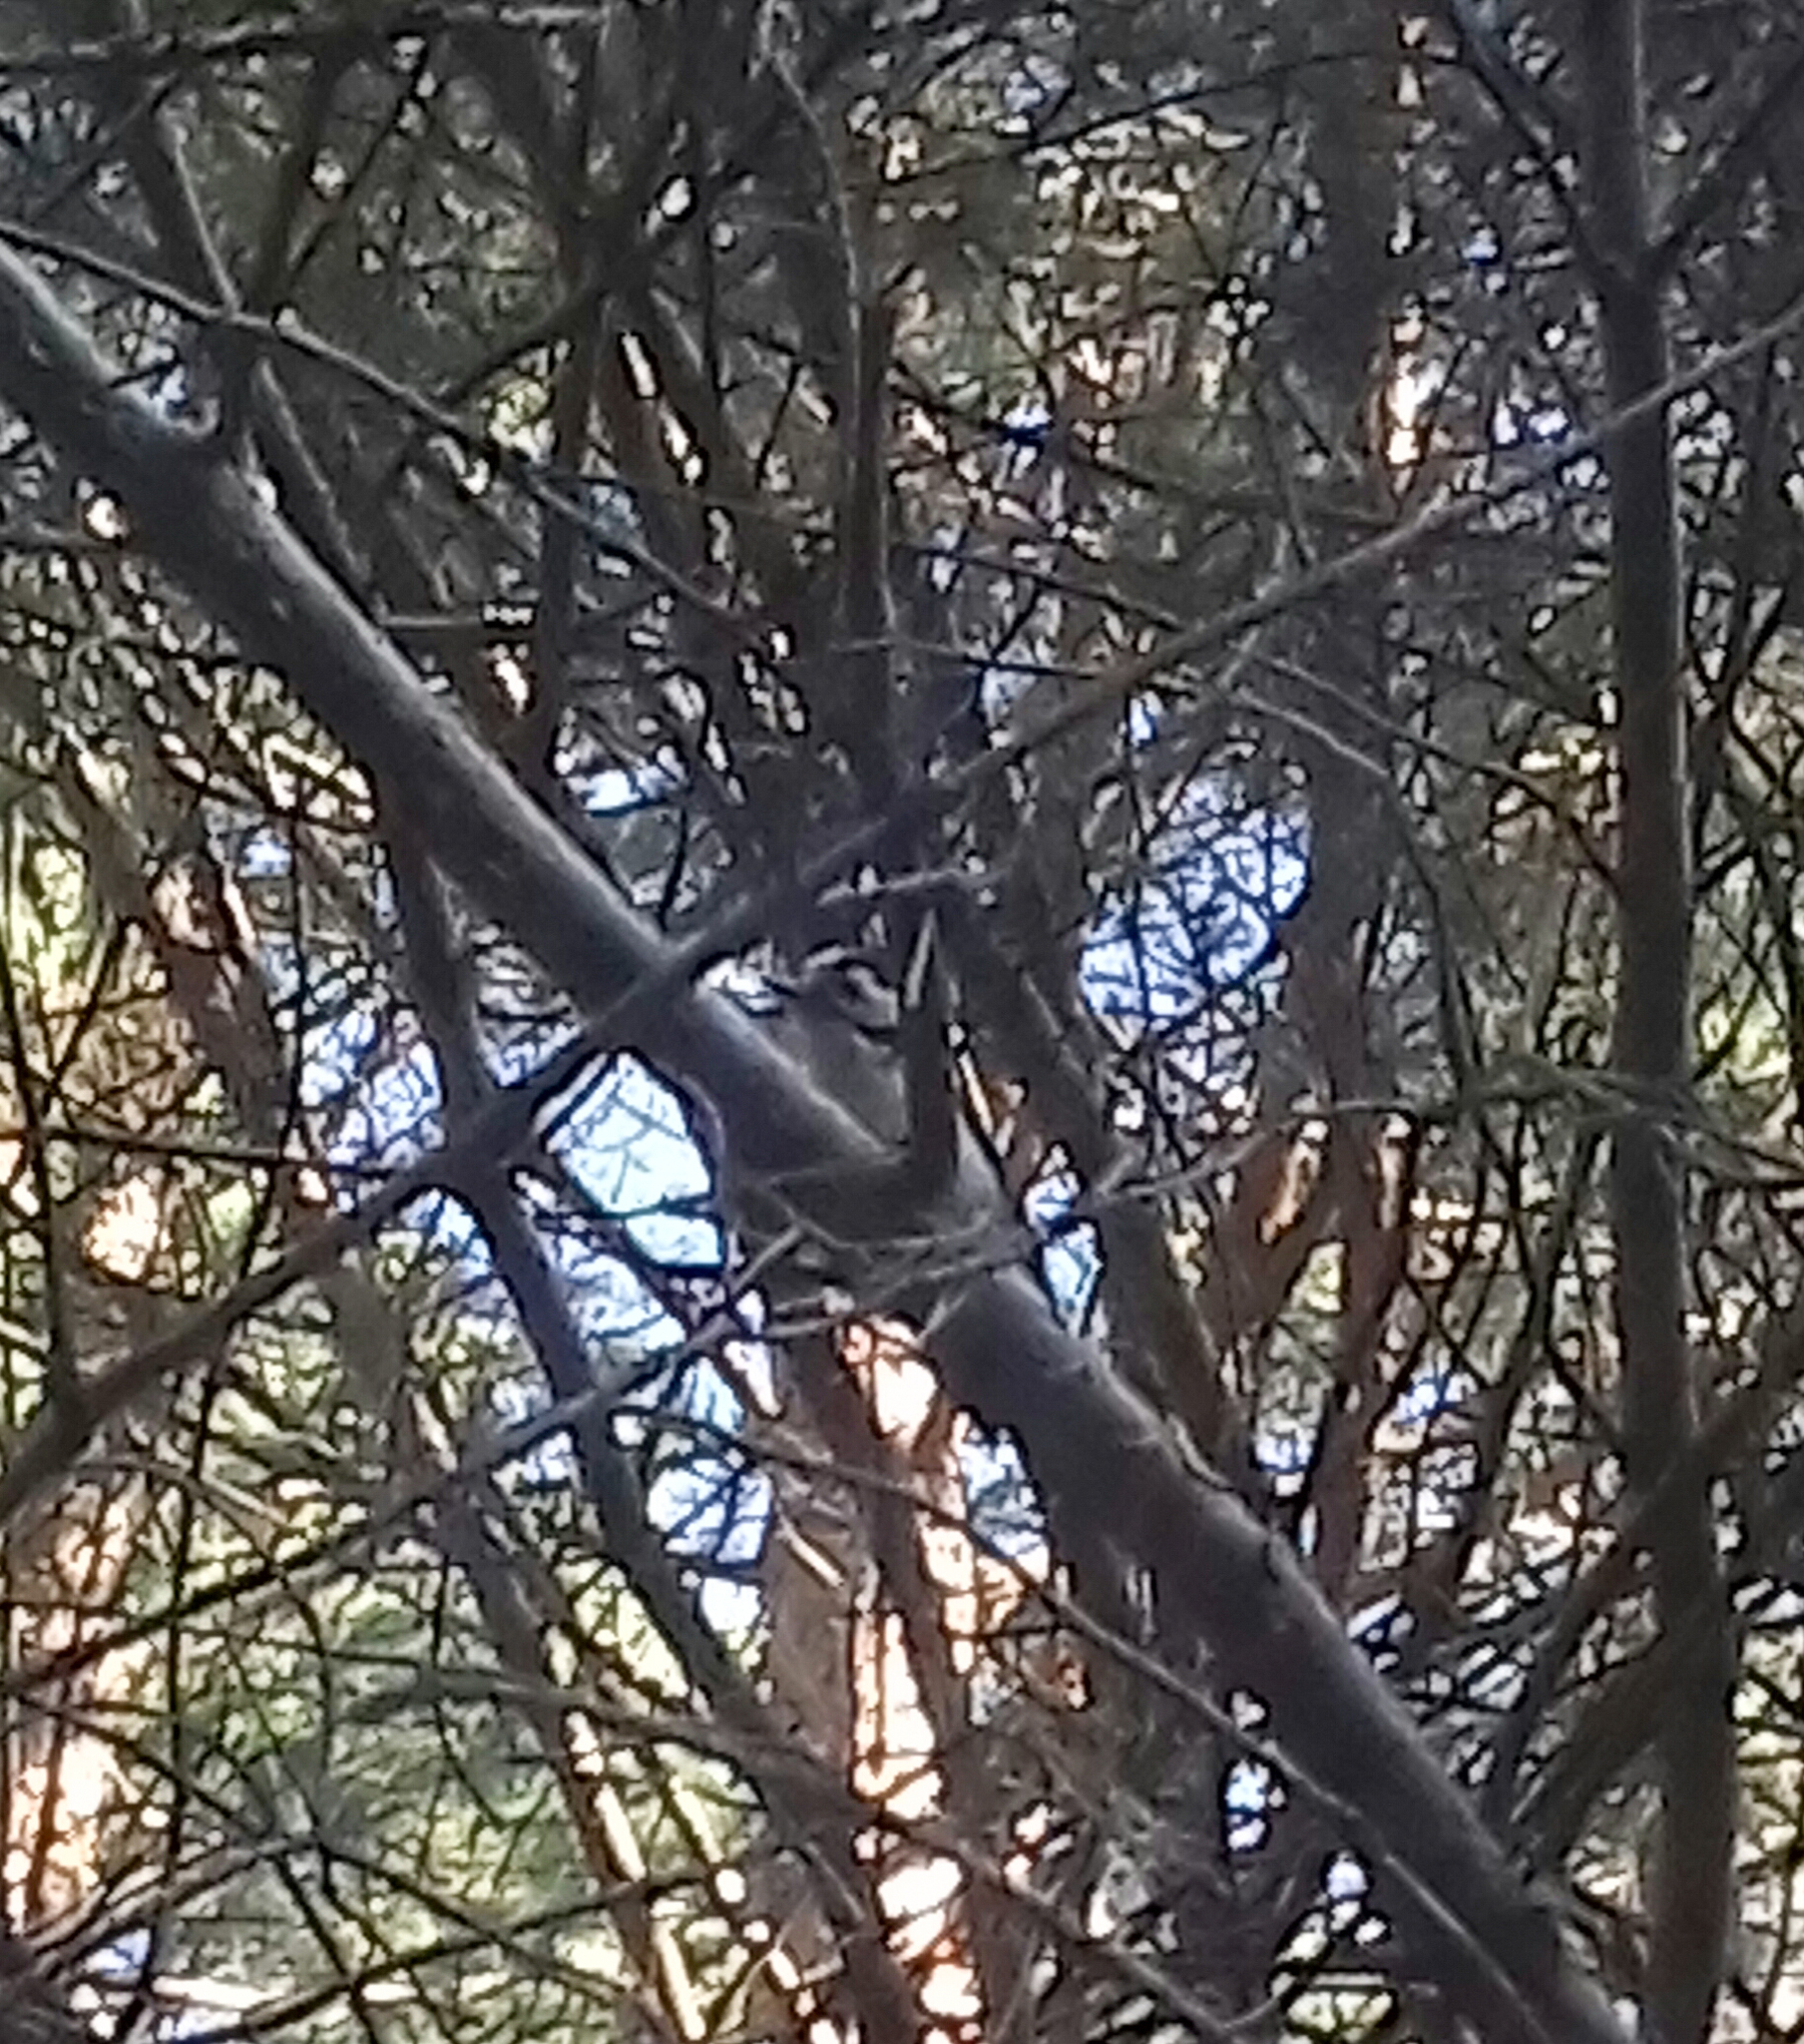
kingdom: Animalia
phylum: Chordata
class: Aves
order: Piciformes
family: Picidae
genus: Dryobates
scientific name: Dryobates minor
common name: Lesser spotted woodpecker
